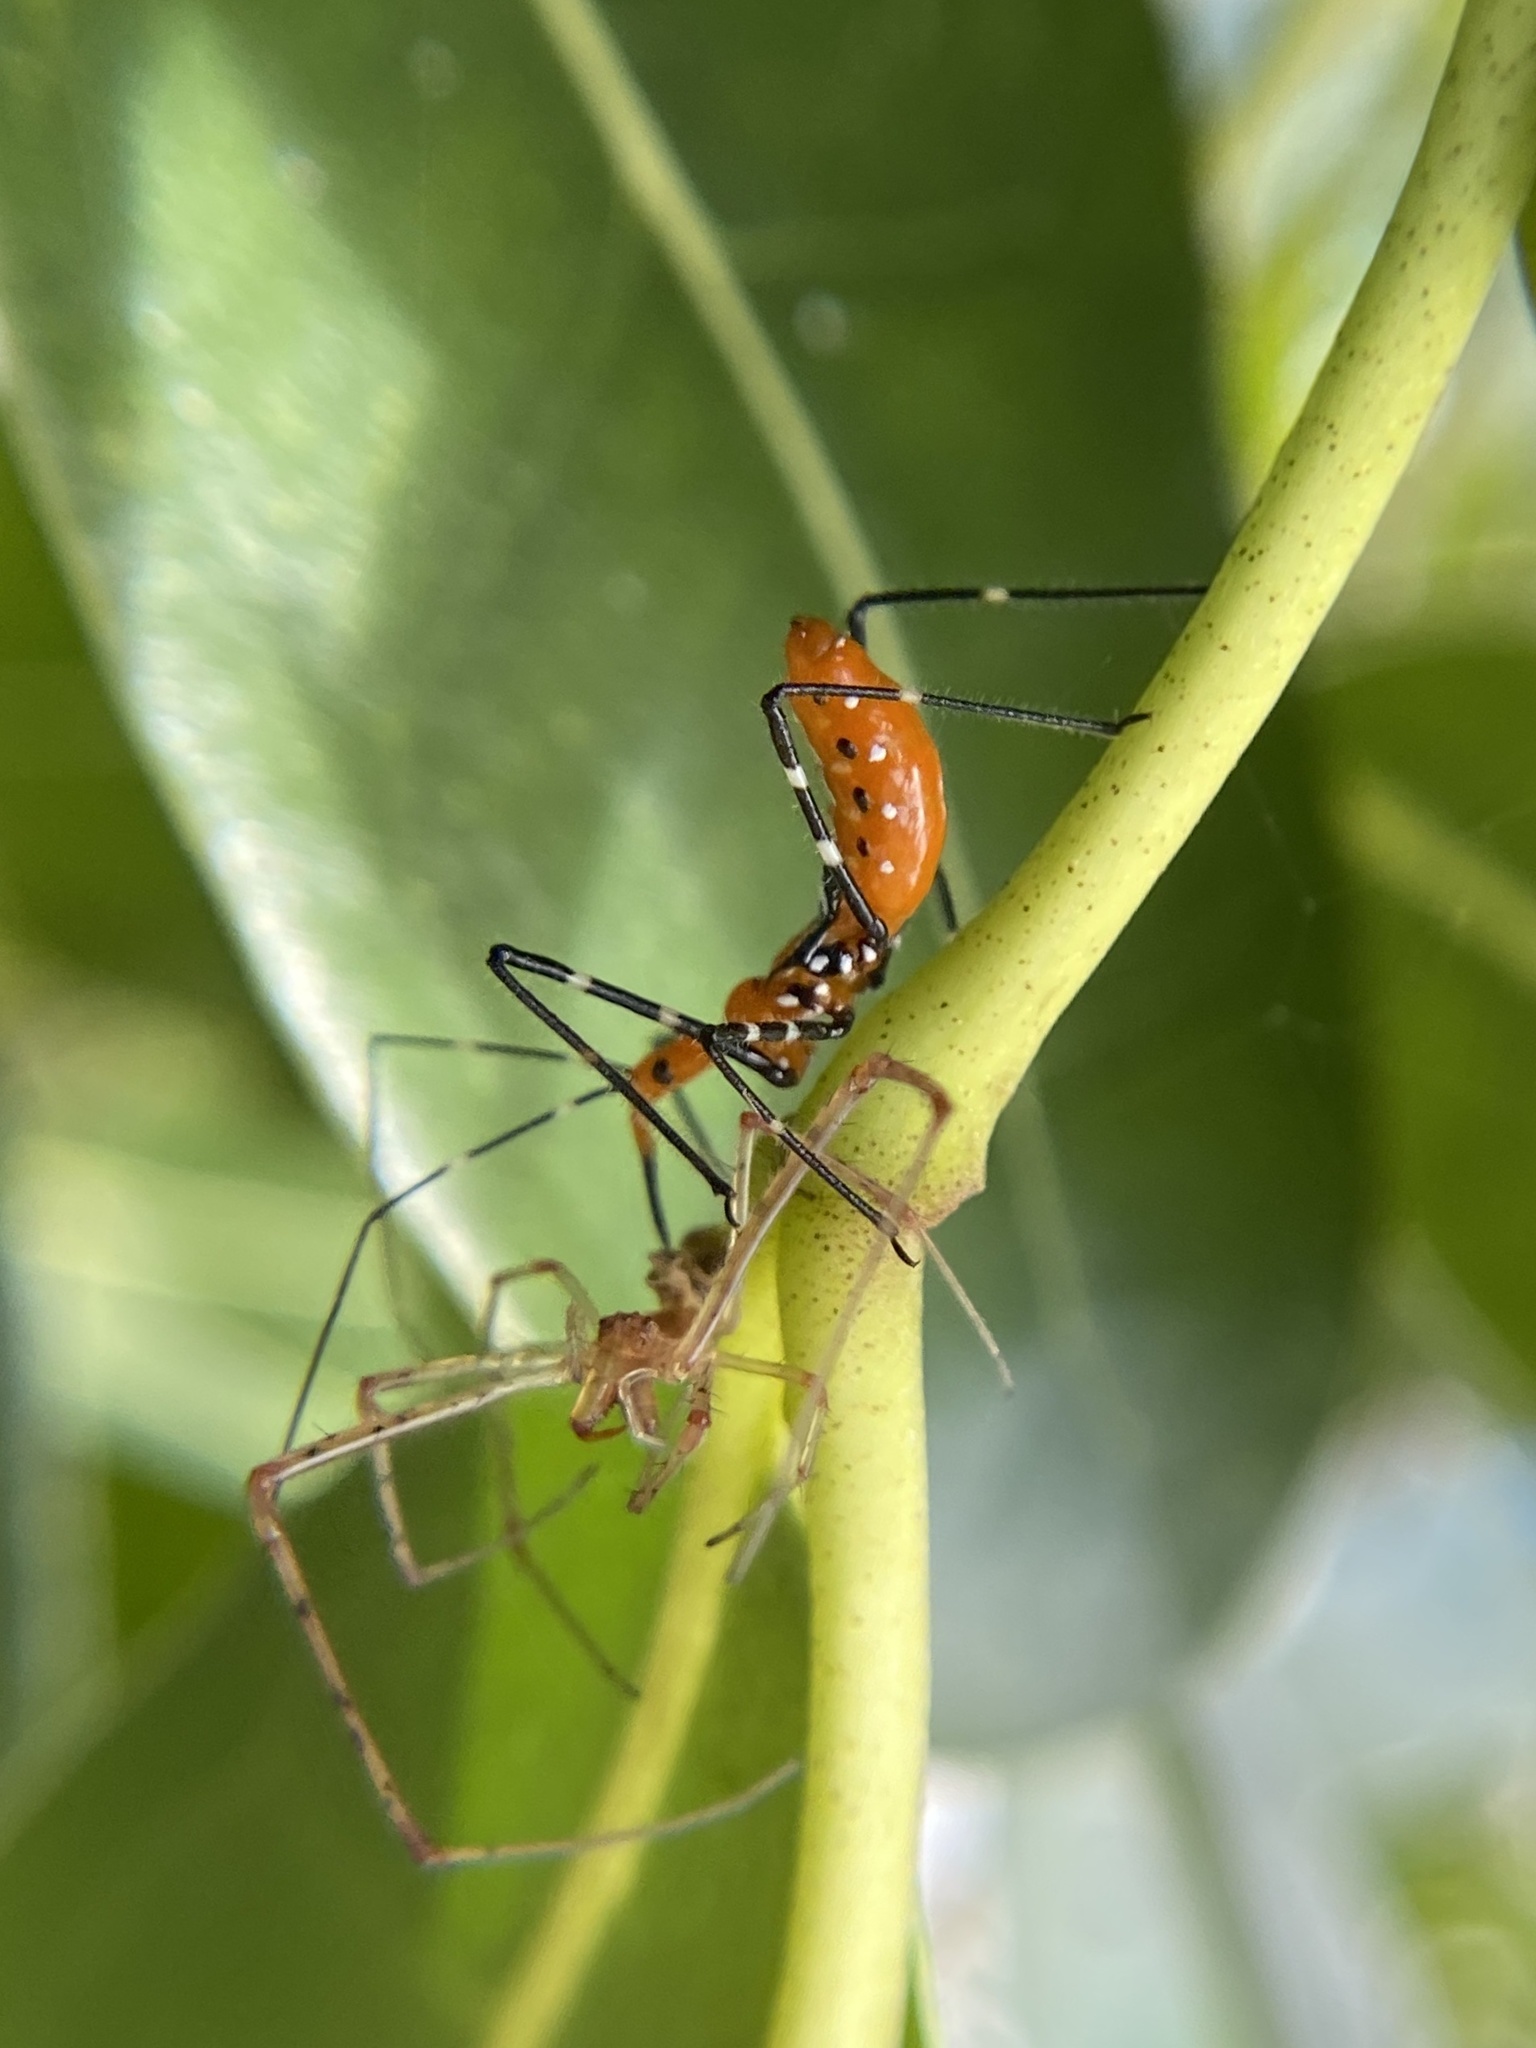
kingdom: Animalia
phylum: Arthropoda
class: Insecta
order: Hemiptera
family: Reduviidae
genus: Zelus
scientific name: Zelus longipes
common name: Milkweed assassin bug
